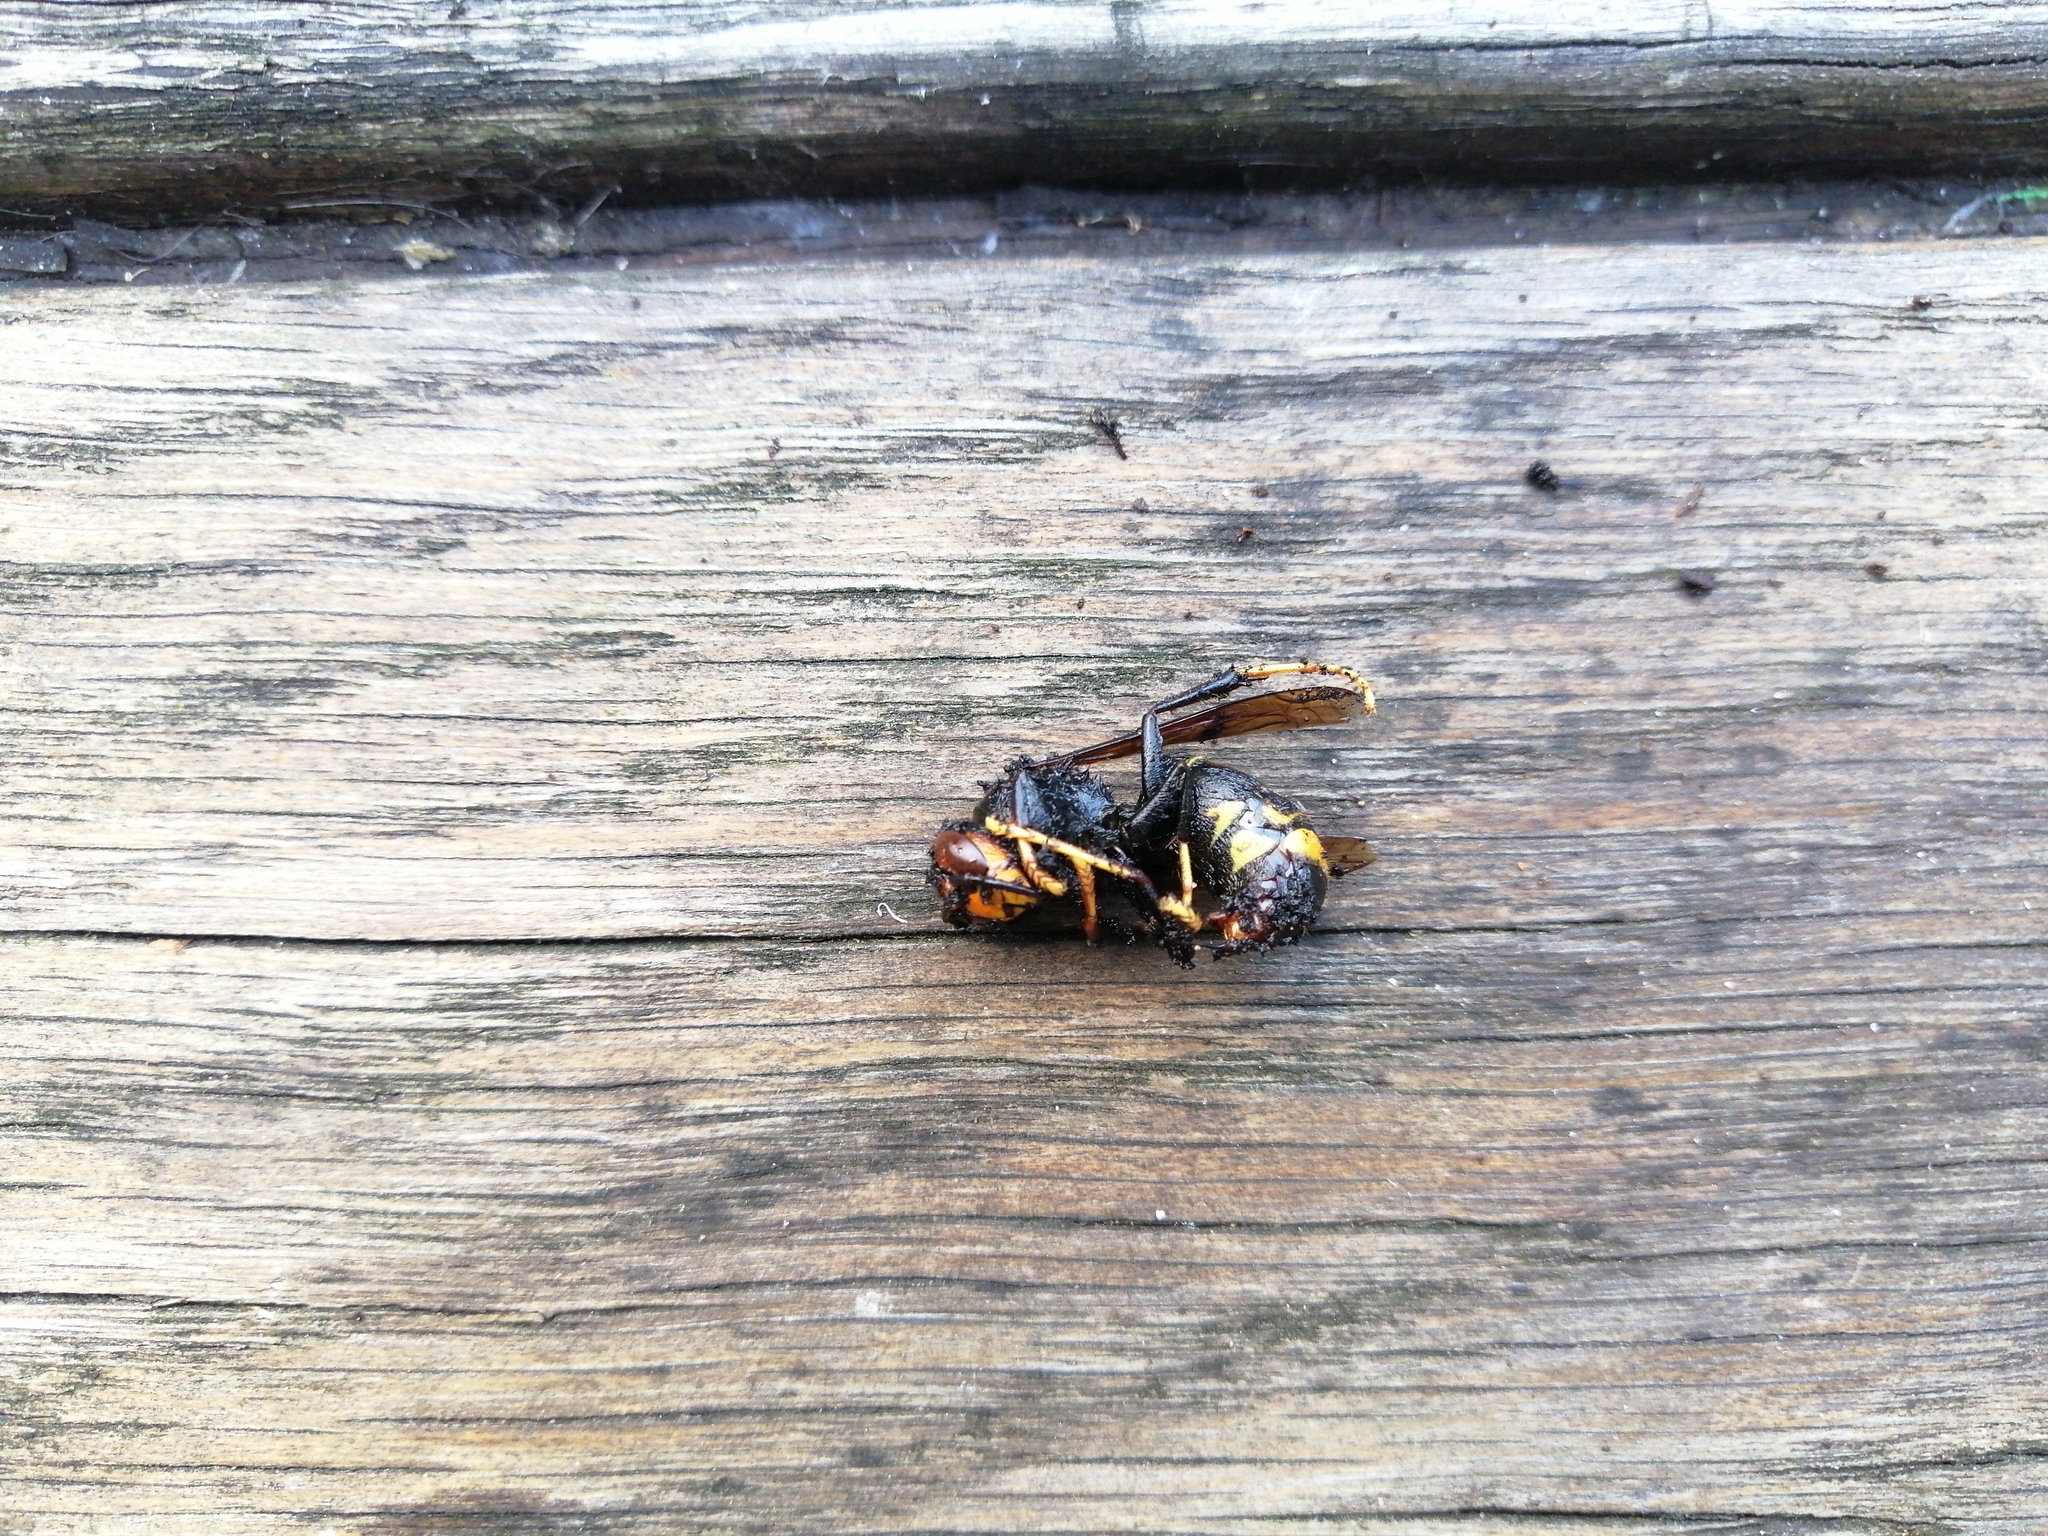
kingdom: Animalia
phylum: Arthropoda
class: Insecta
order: Hymenoptera
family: Vespidae
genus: Vespa
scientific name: Vespa velutina
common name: Asian hornet
